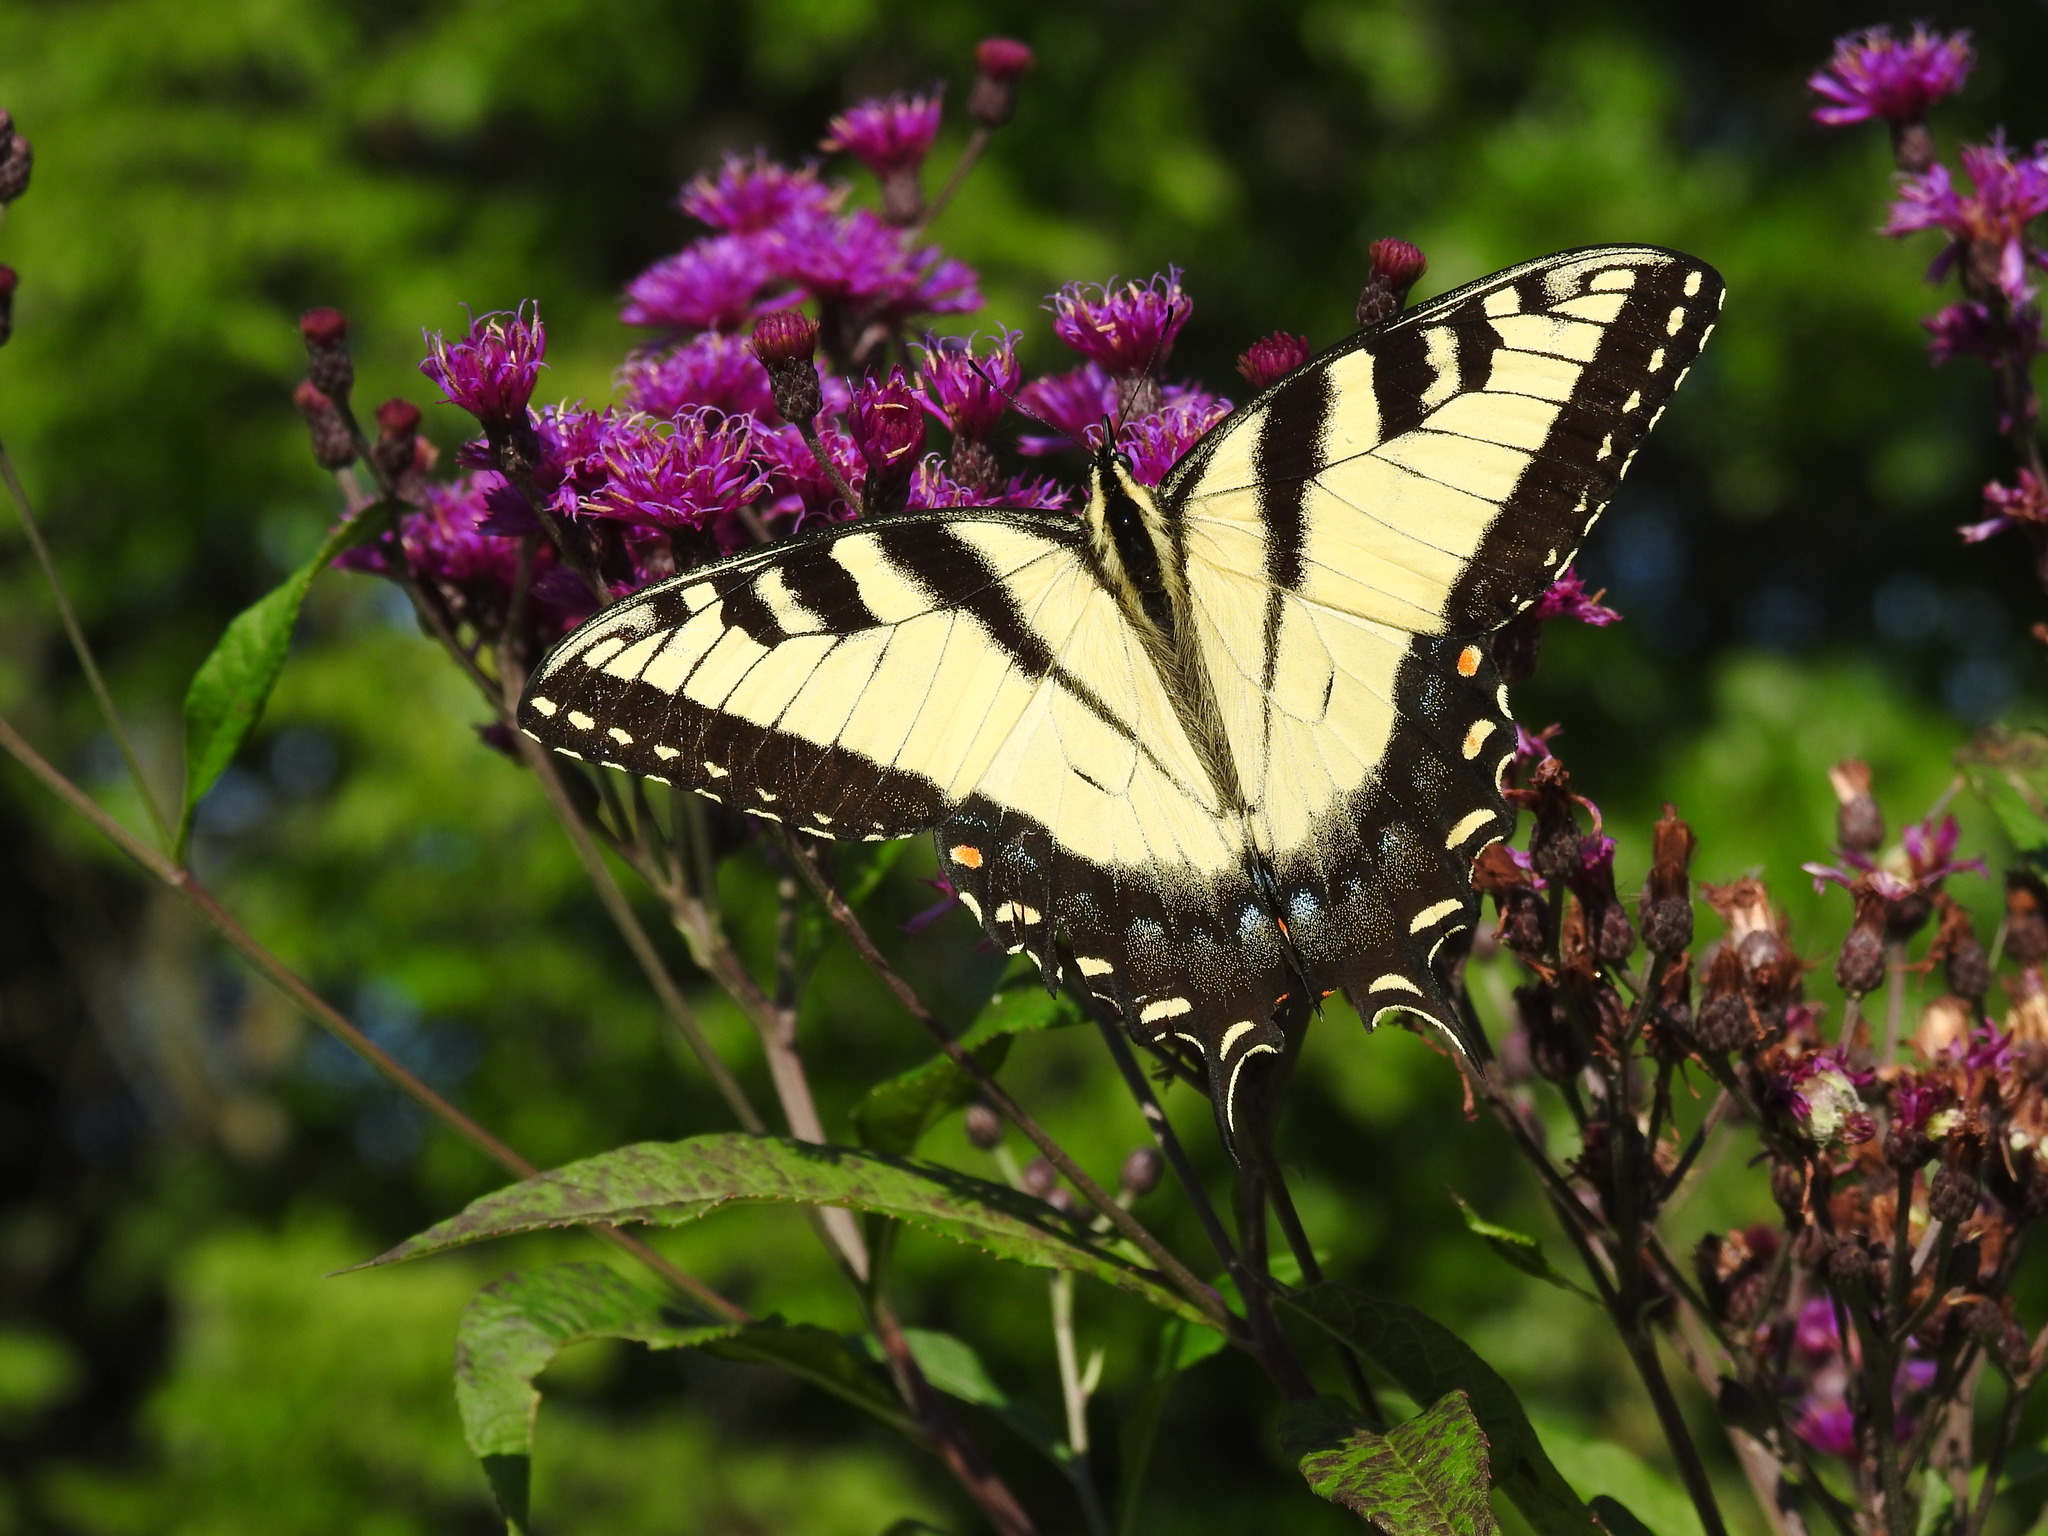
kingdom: Animalia
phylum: Arthropoda
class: Insecta
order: Lepidoptera
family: Papilionidae
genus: Papilio
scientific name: Papilio glaucus
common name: Tiger swallowtail
